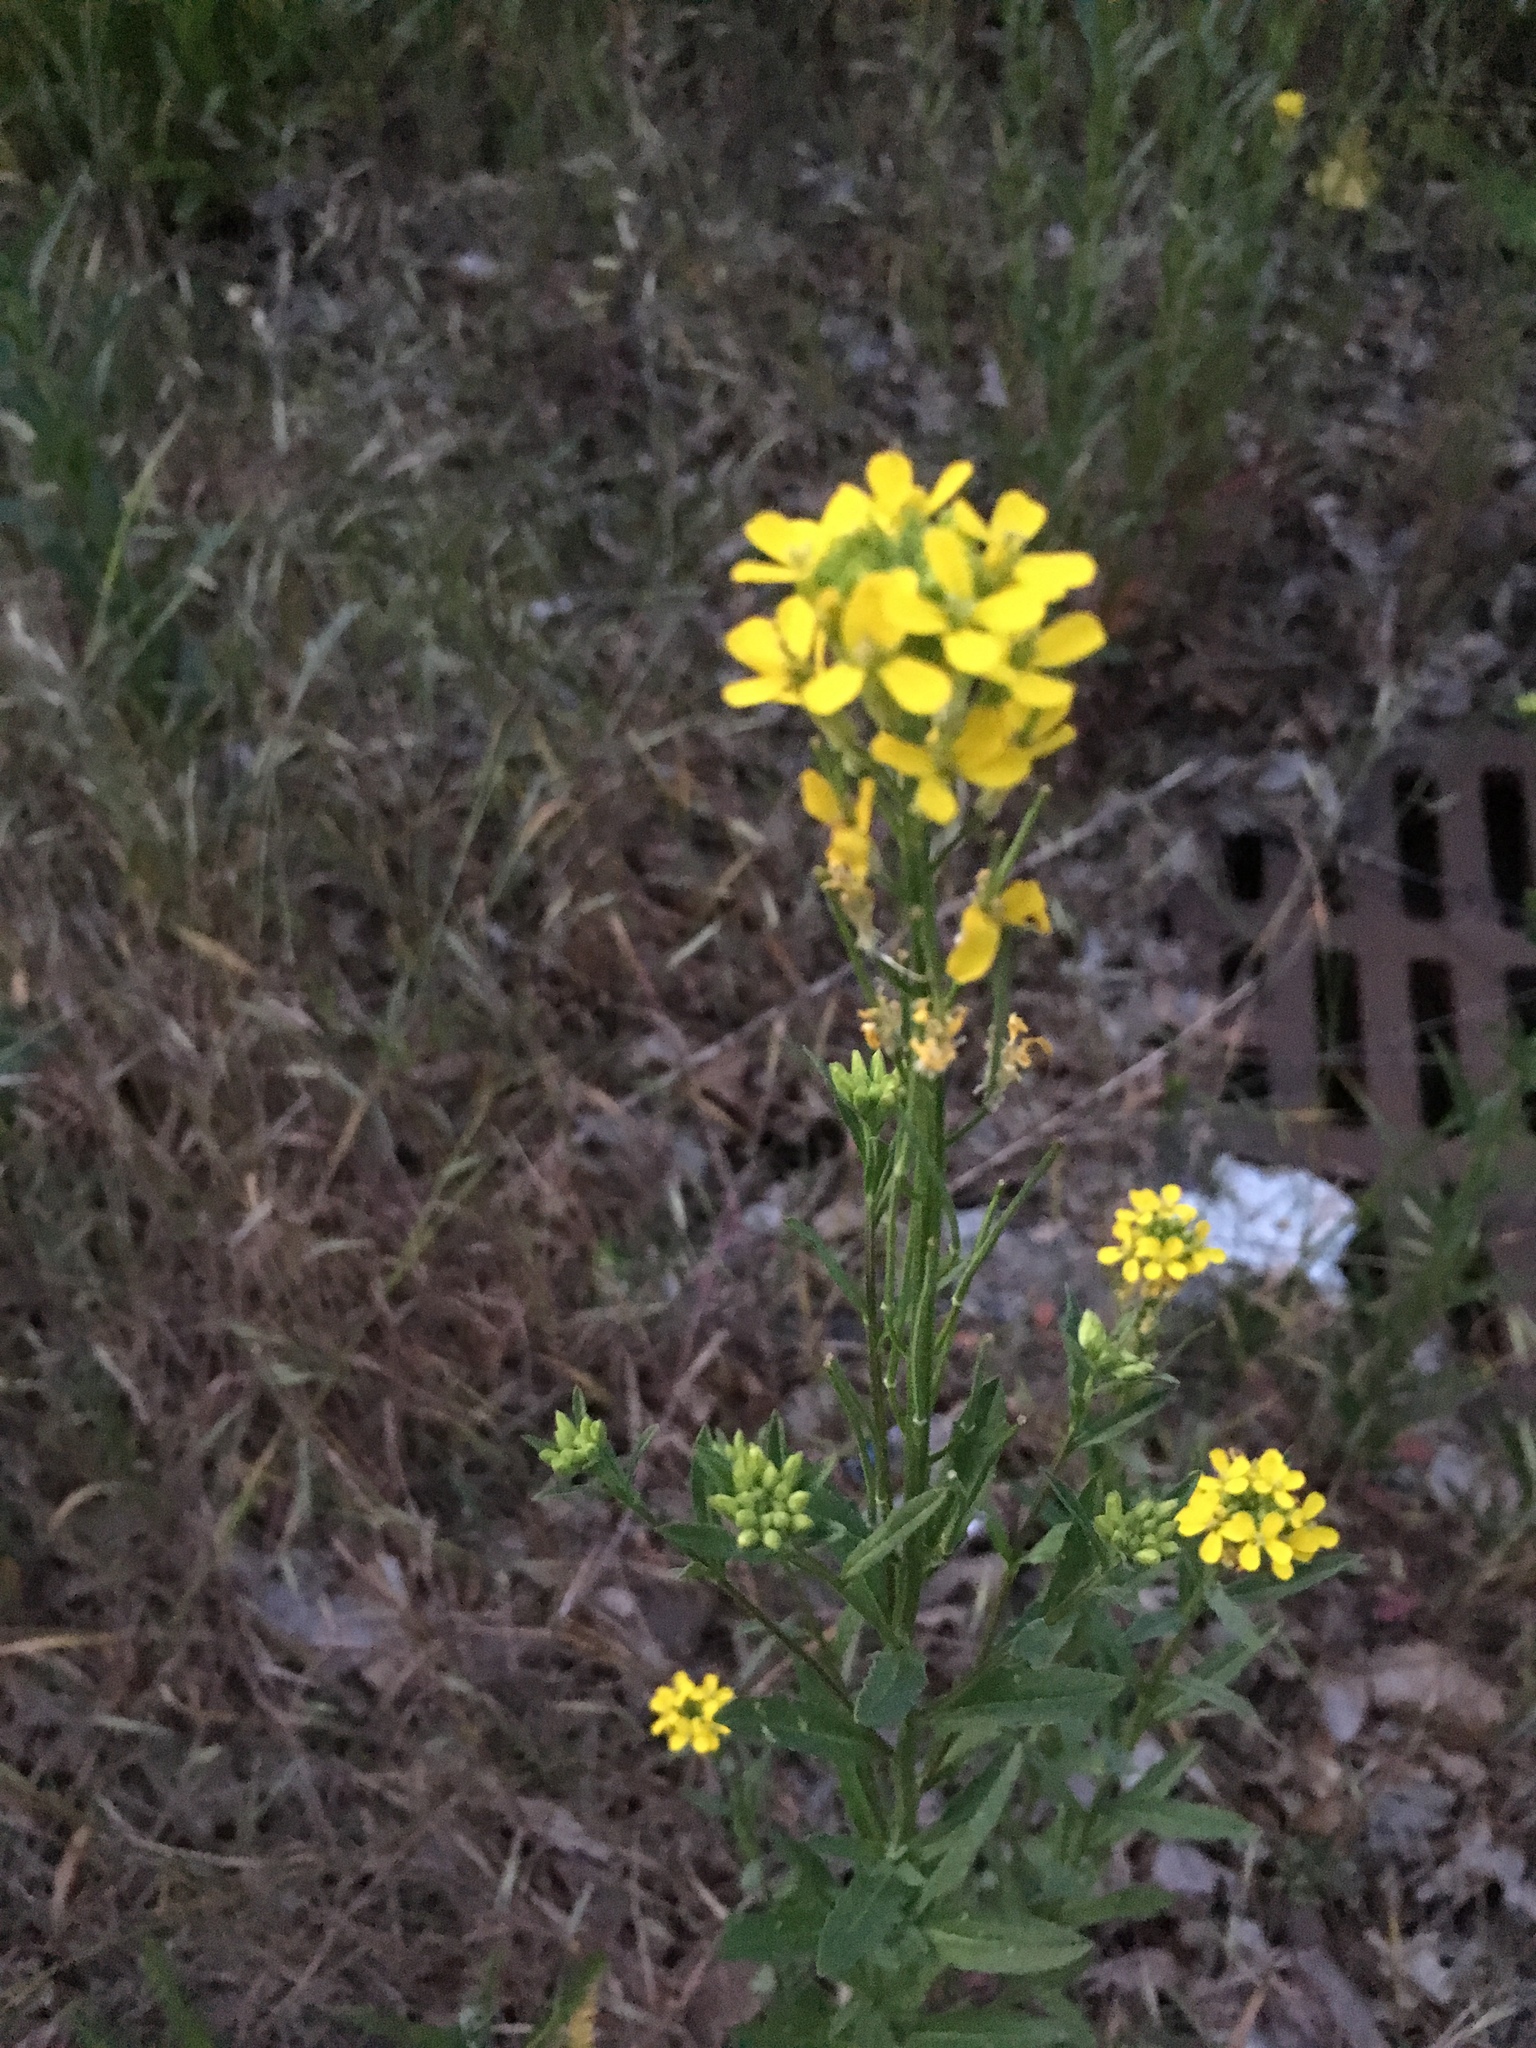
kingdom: Plantae
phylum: Tracheophyta
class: Magnoliopsida
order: Brassicales
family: Brassicaceae
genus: Erysimum
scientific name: Erysimum cheiranthoides
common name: Treacle mustard
